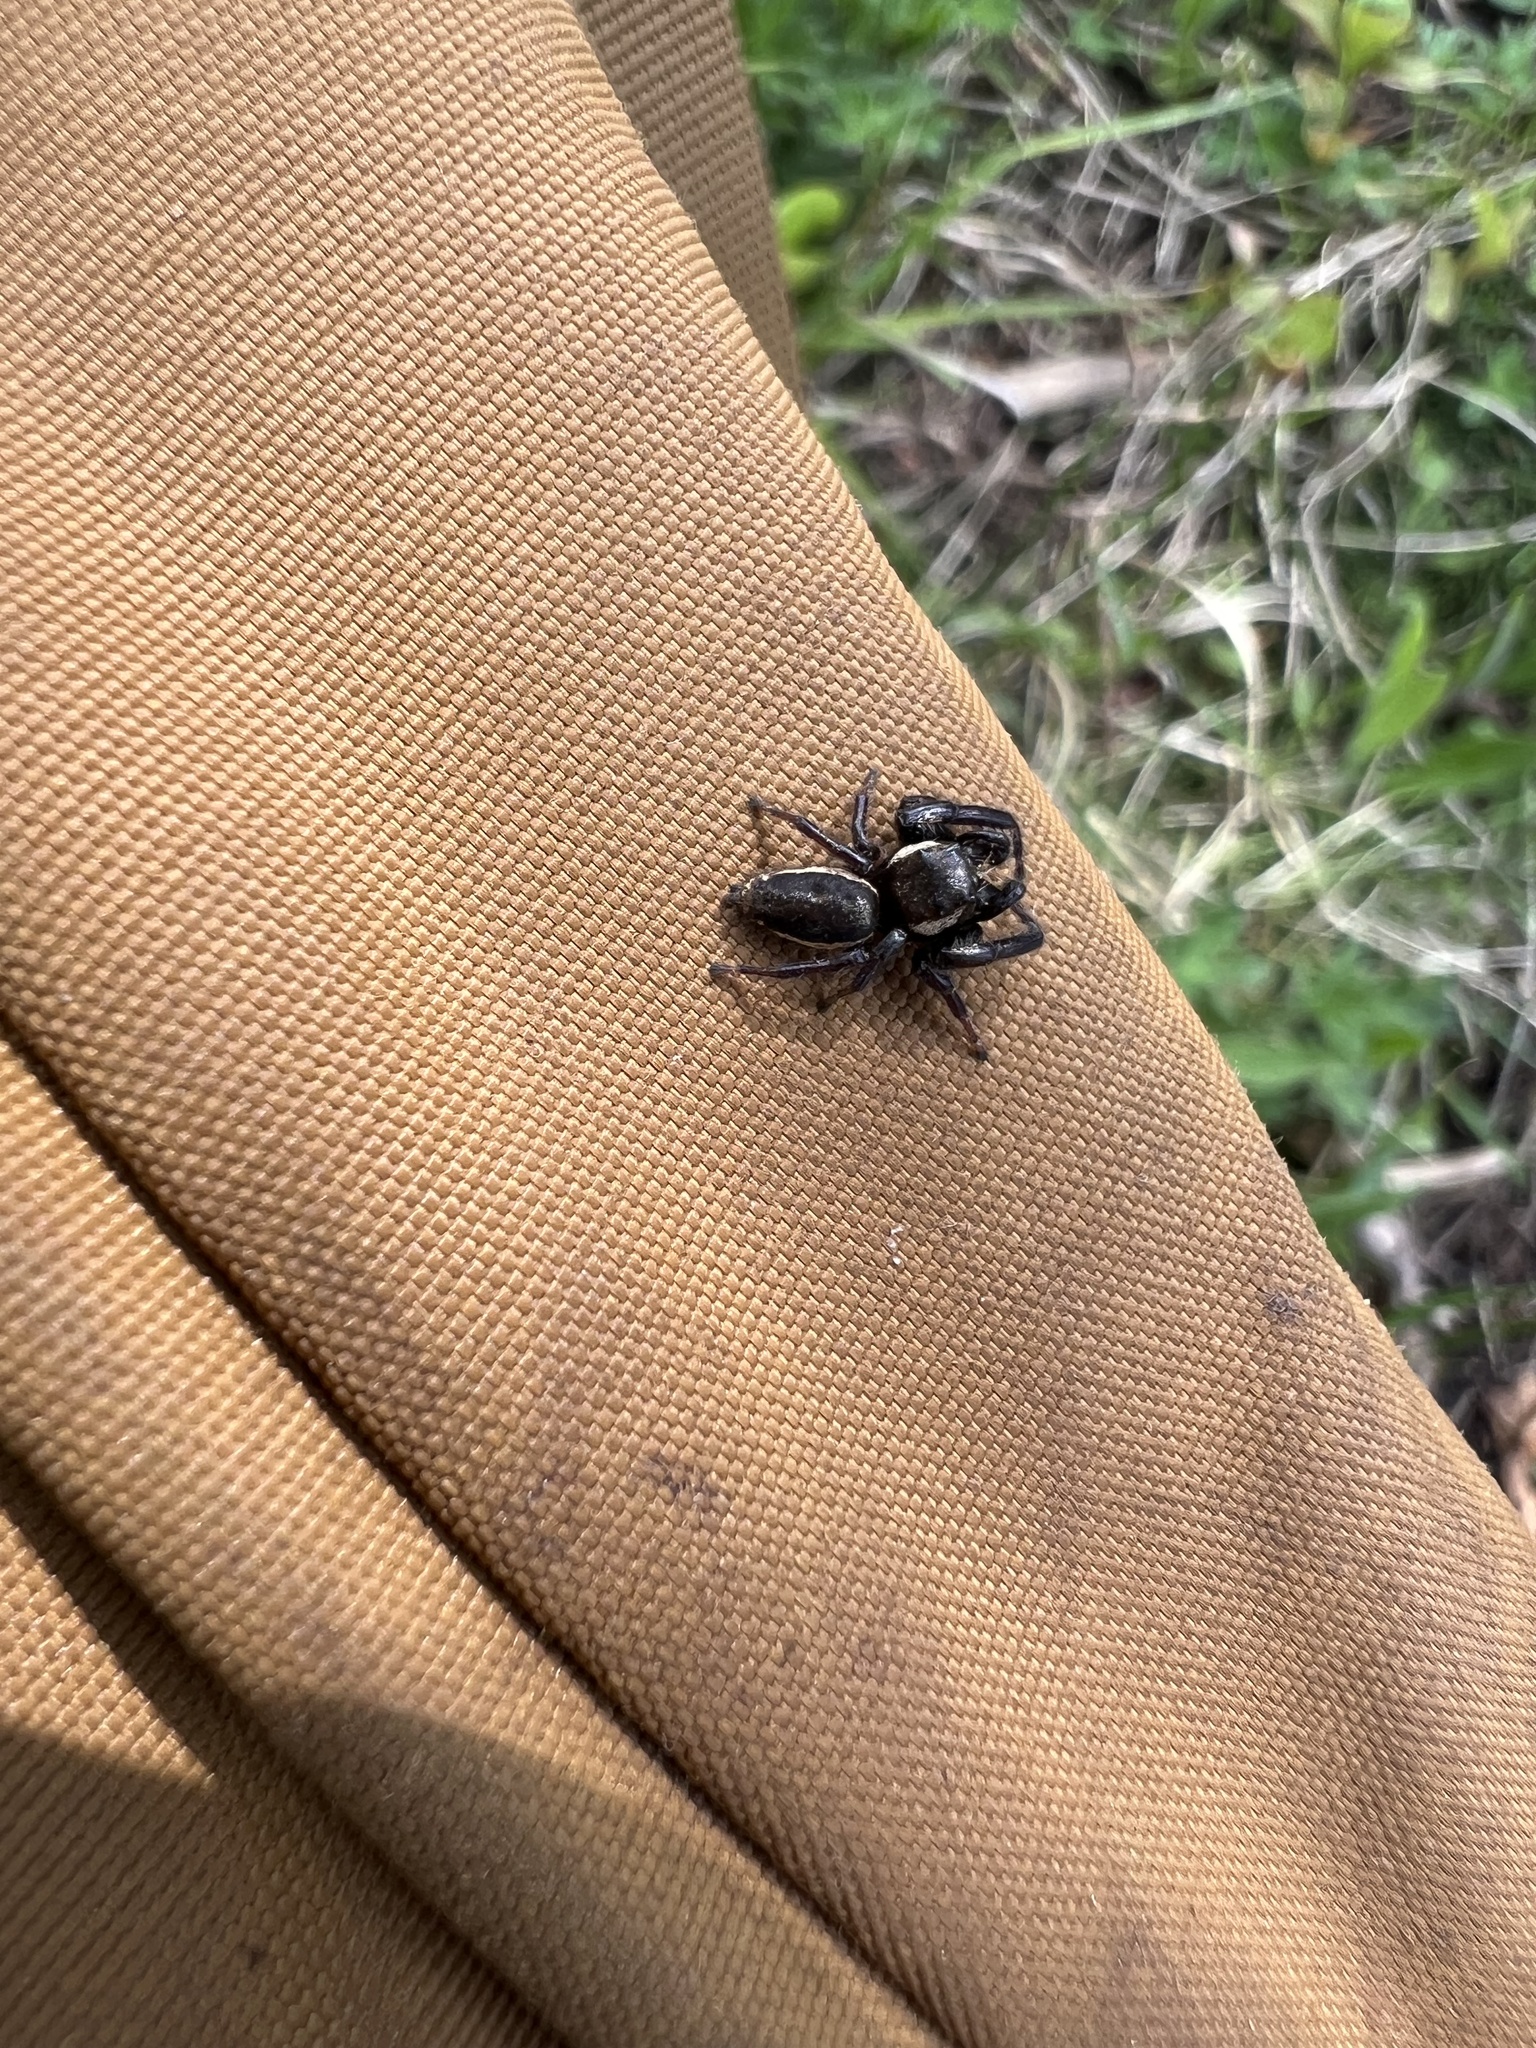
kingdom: Animalia
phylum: Arthropoda
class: Arachnida
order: Araneae
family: Salticidae
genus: Eris
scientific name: Eris militaris
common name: Bronze jumper
